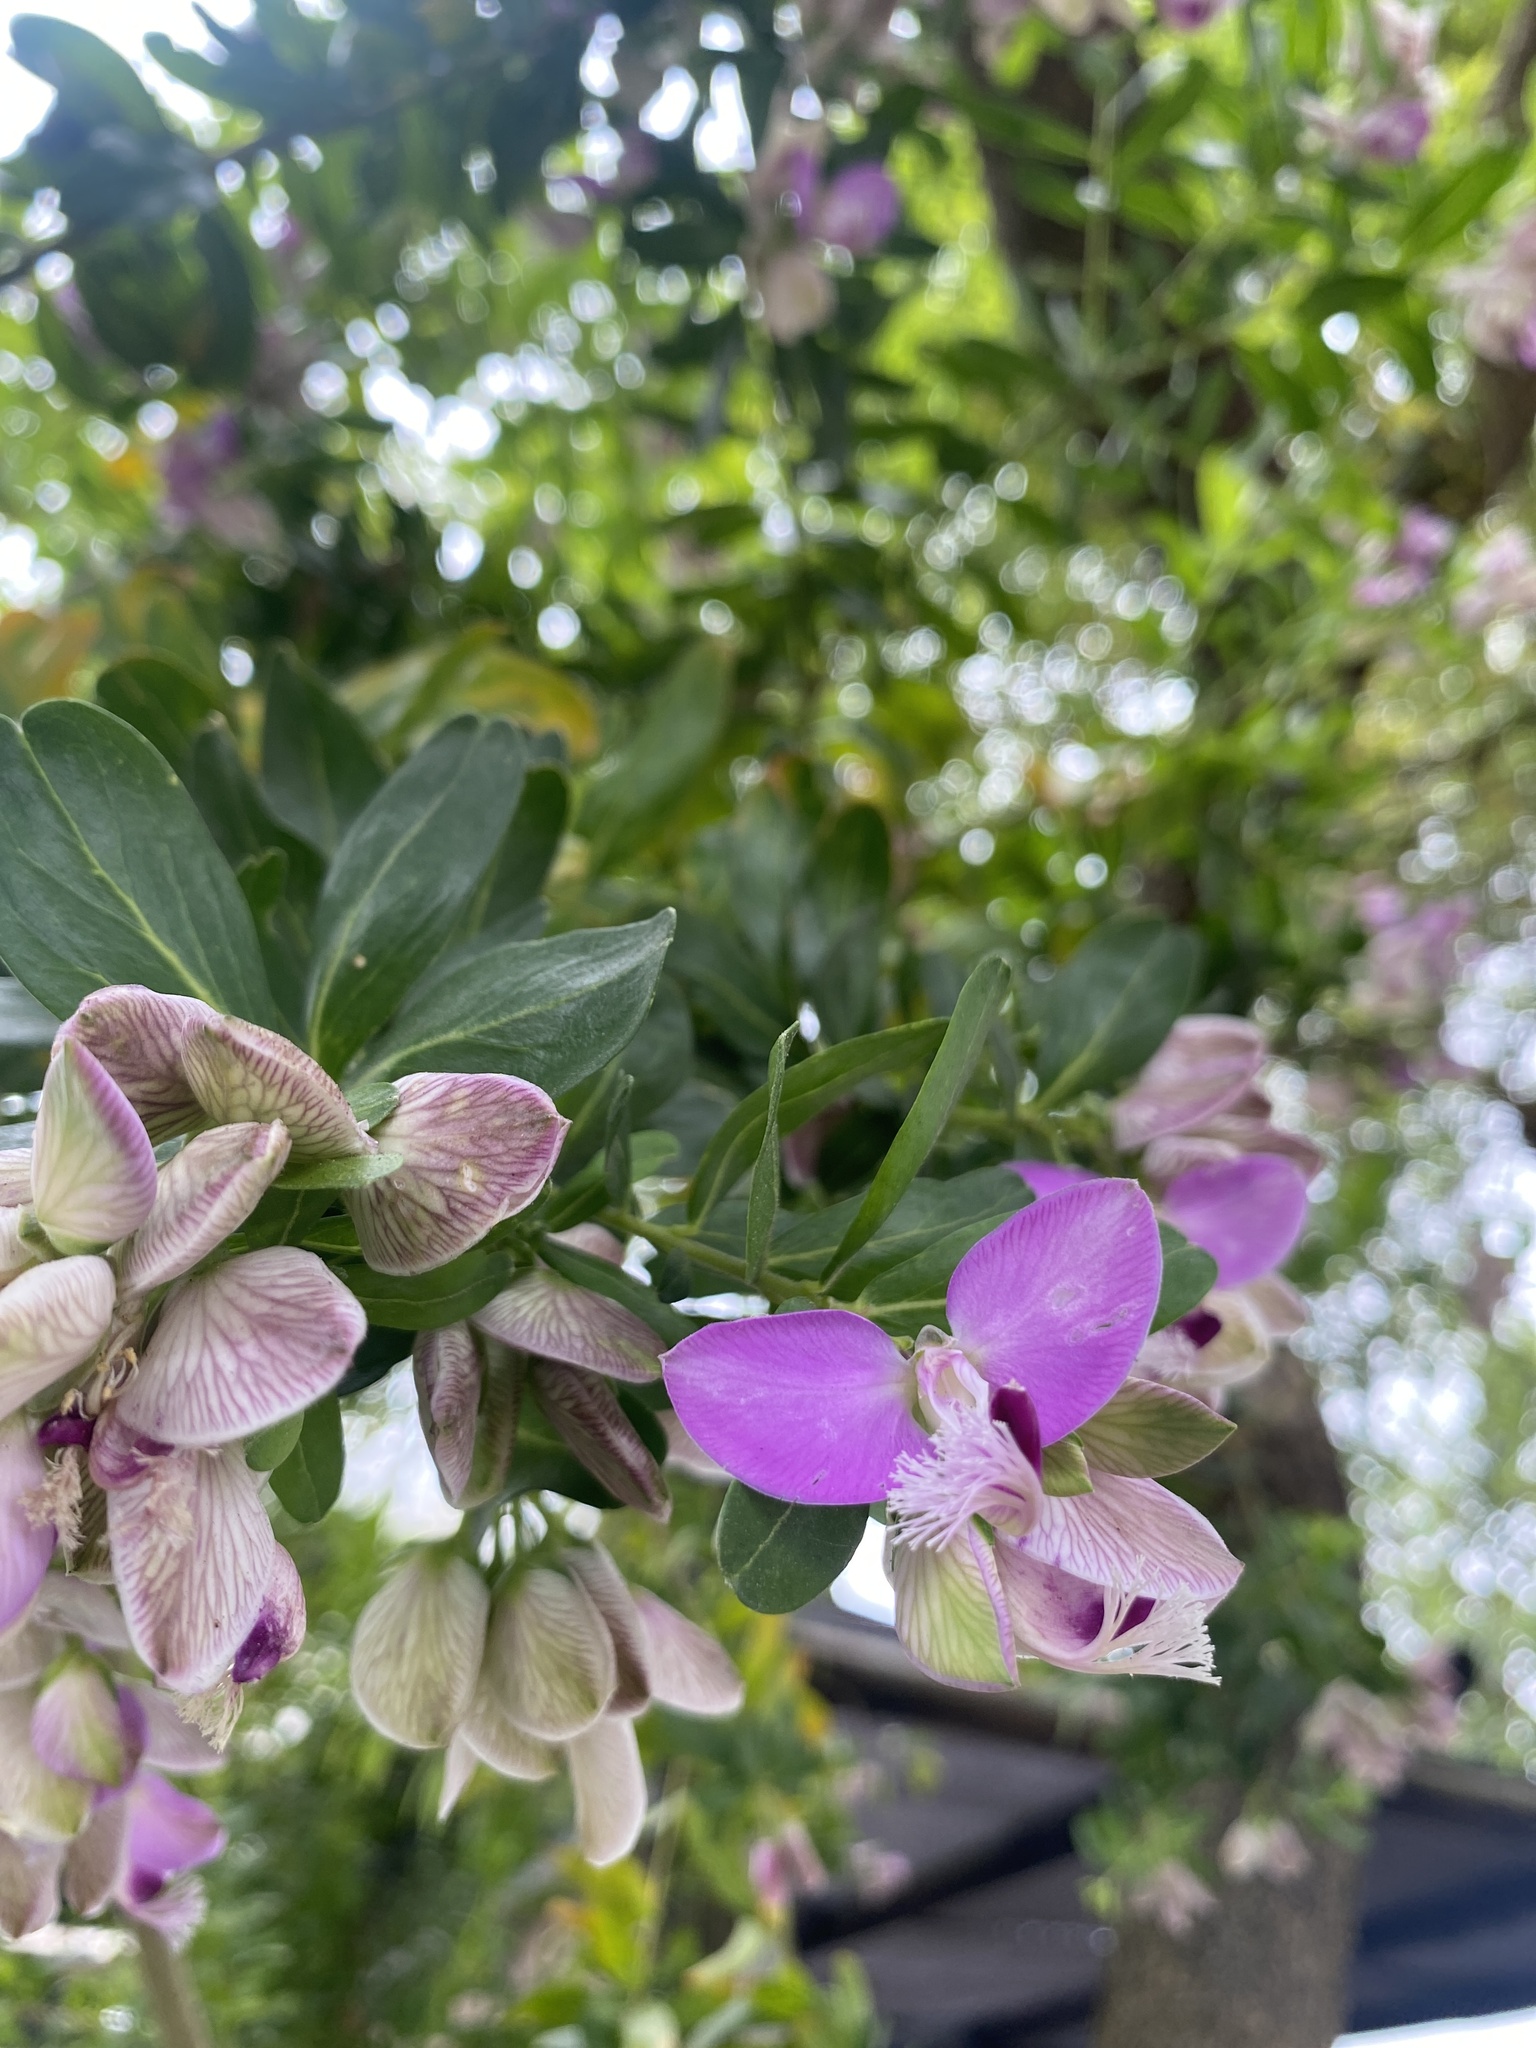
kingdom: Plantae
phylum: Tracheophyta
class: Magnoliopsida
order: Fabales
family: Polygalaceae
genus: Polygala
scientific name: Polygala myrtifolia
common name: Myrtle-leaf milkwort
